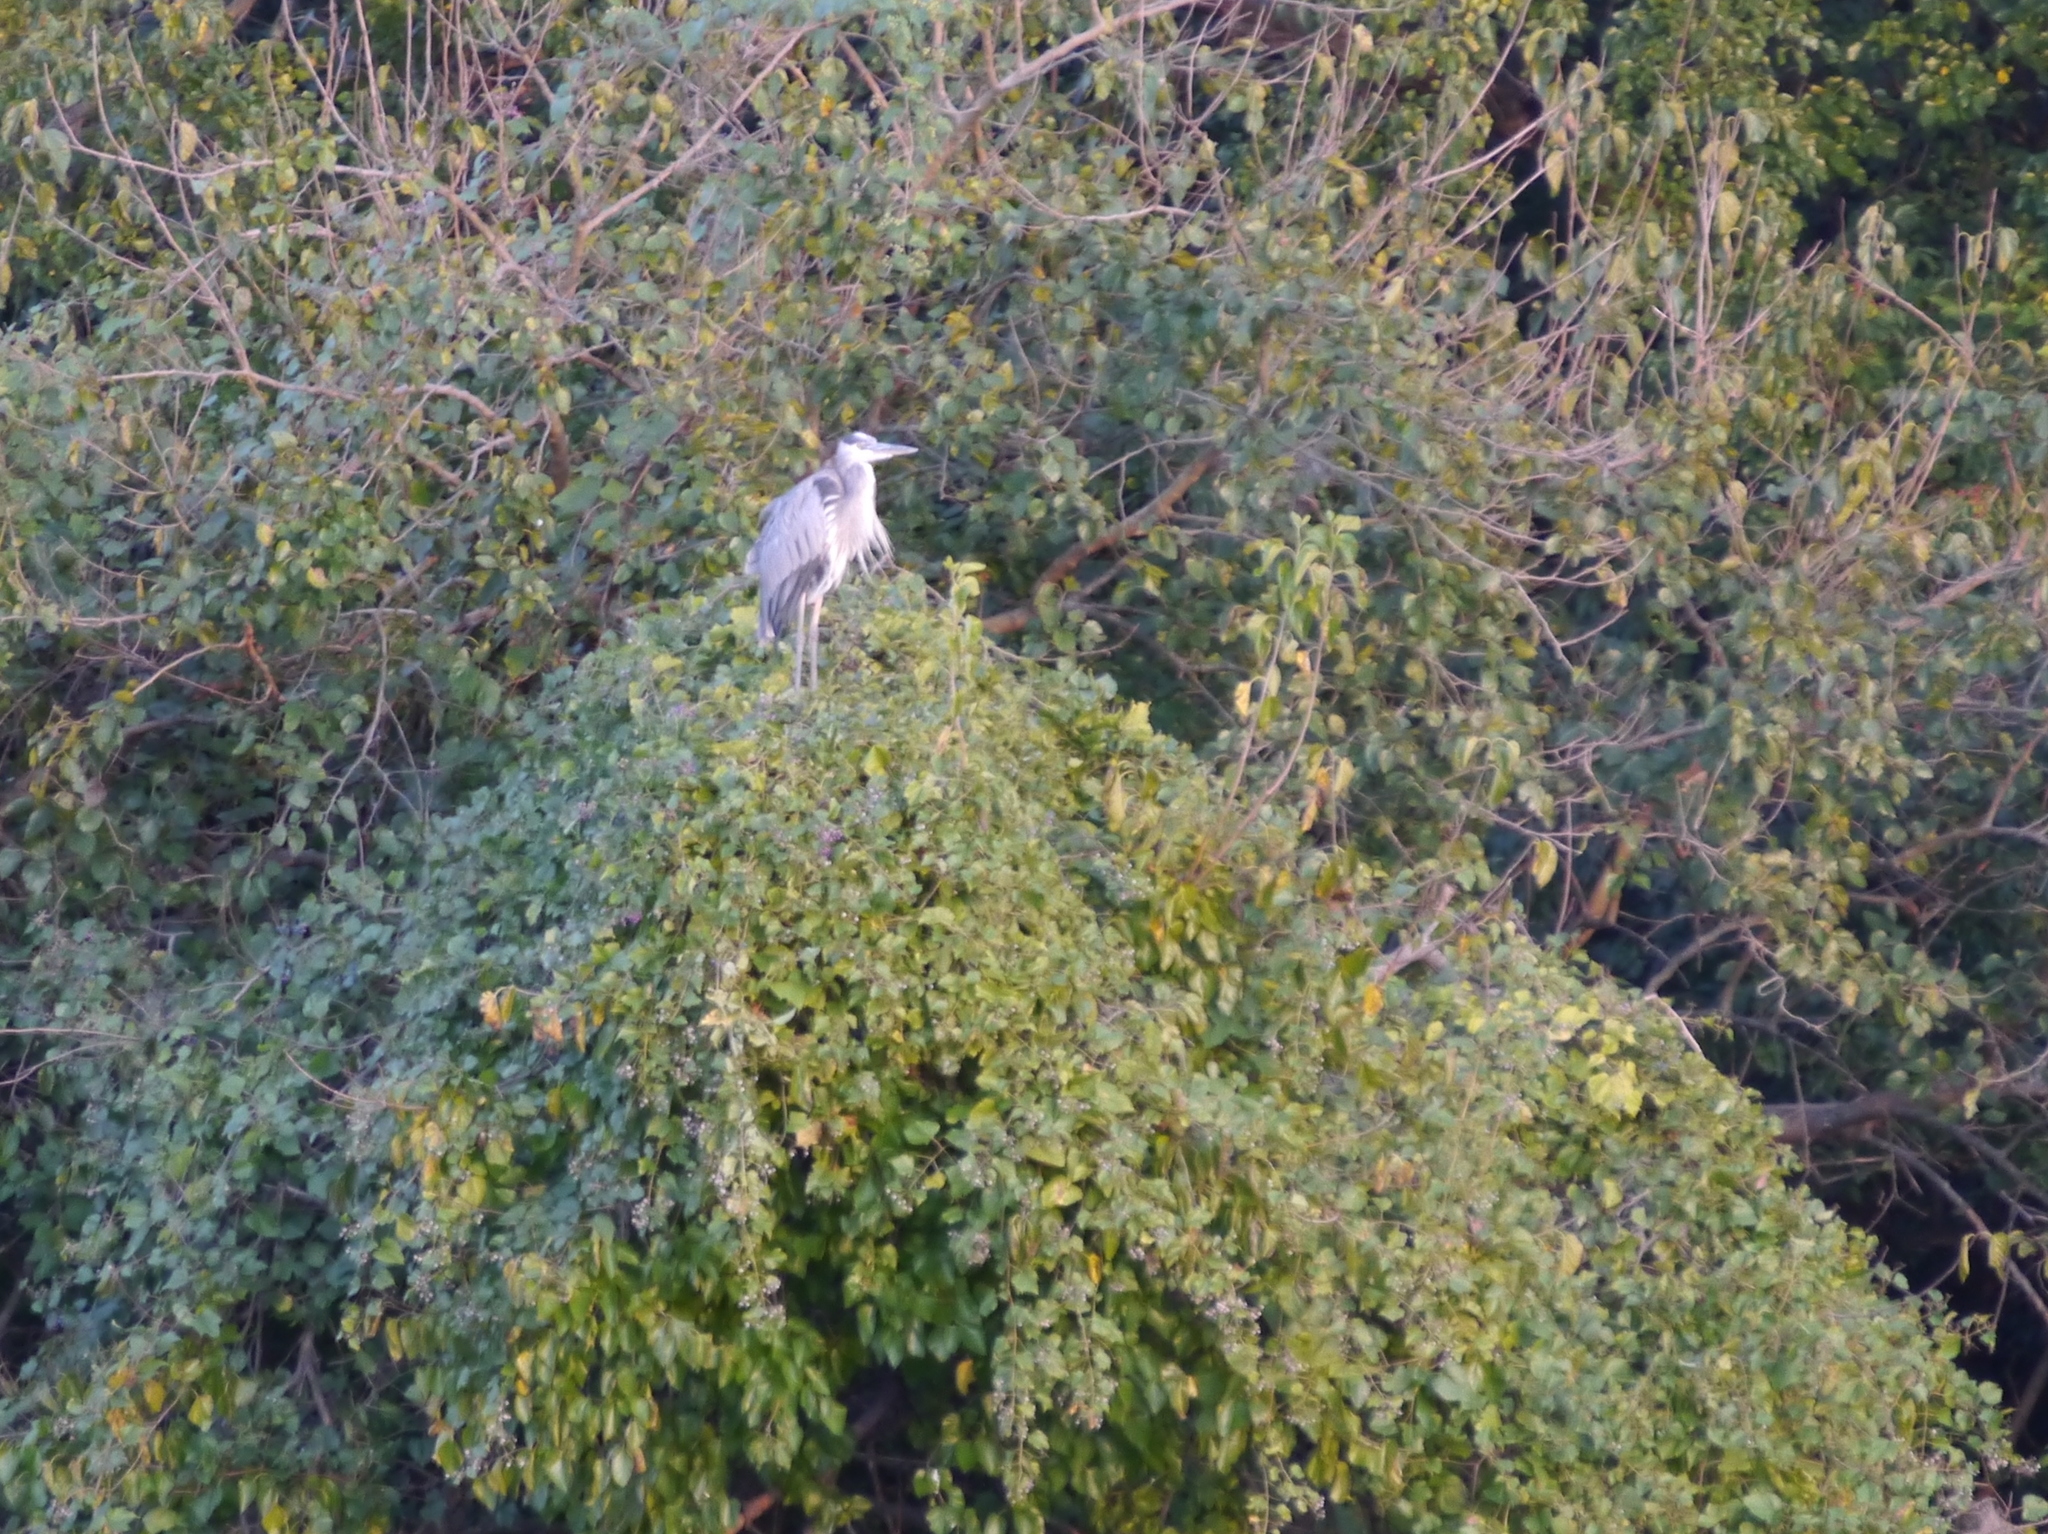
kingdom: Animalia
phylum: Chordata
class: Aves
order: Pelecaniformes
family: Ardeidae
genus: Ardea
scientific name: Ardea herodias
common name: Great blue heron
